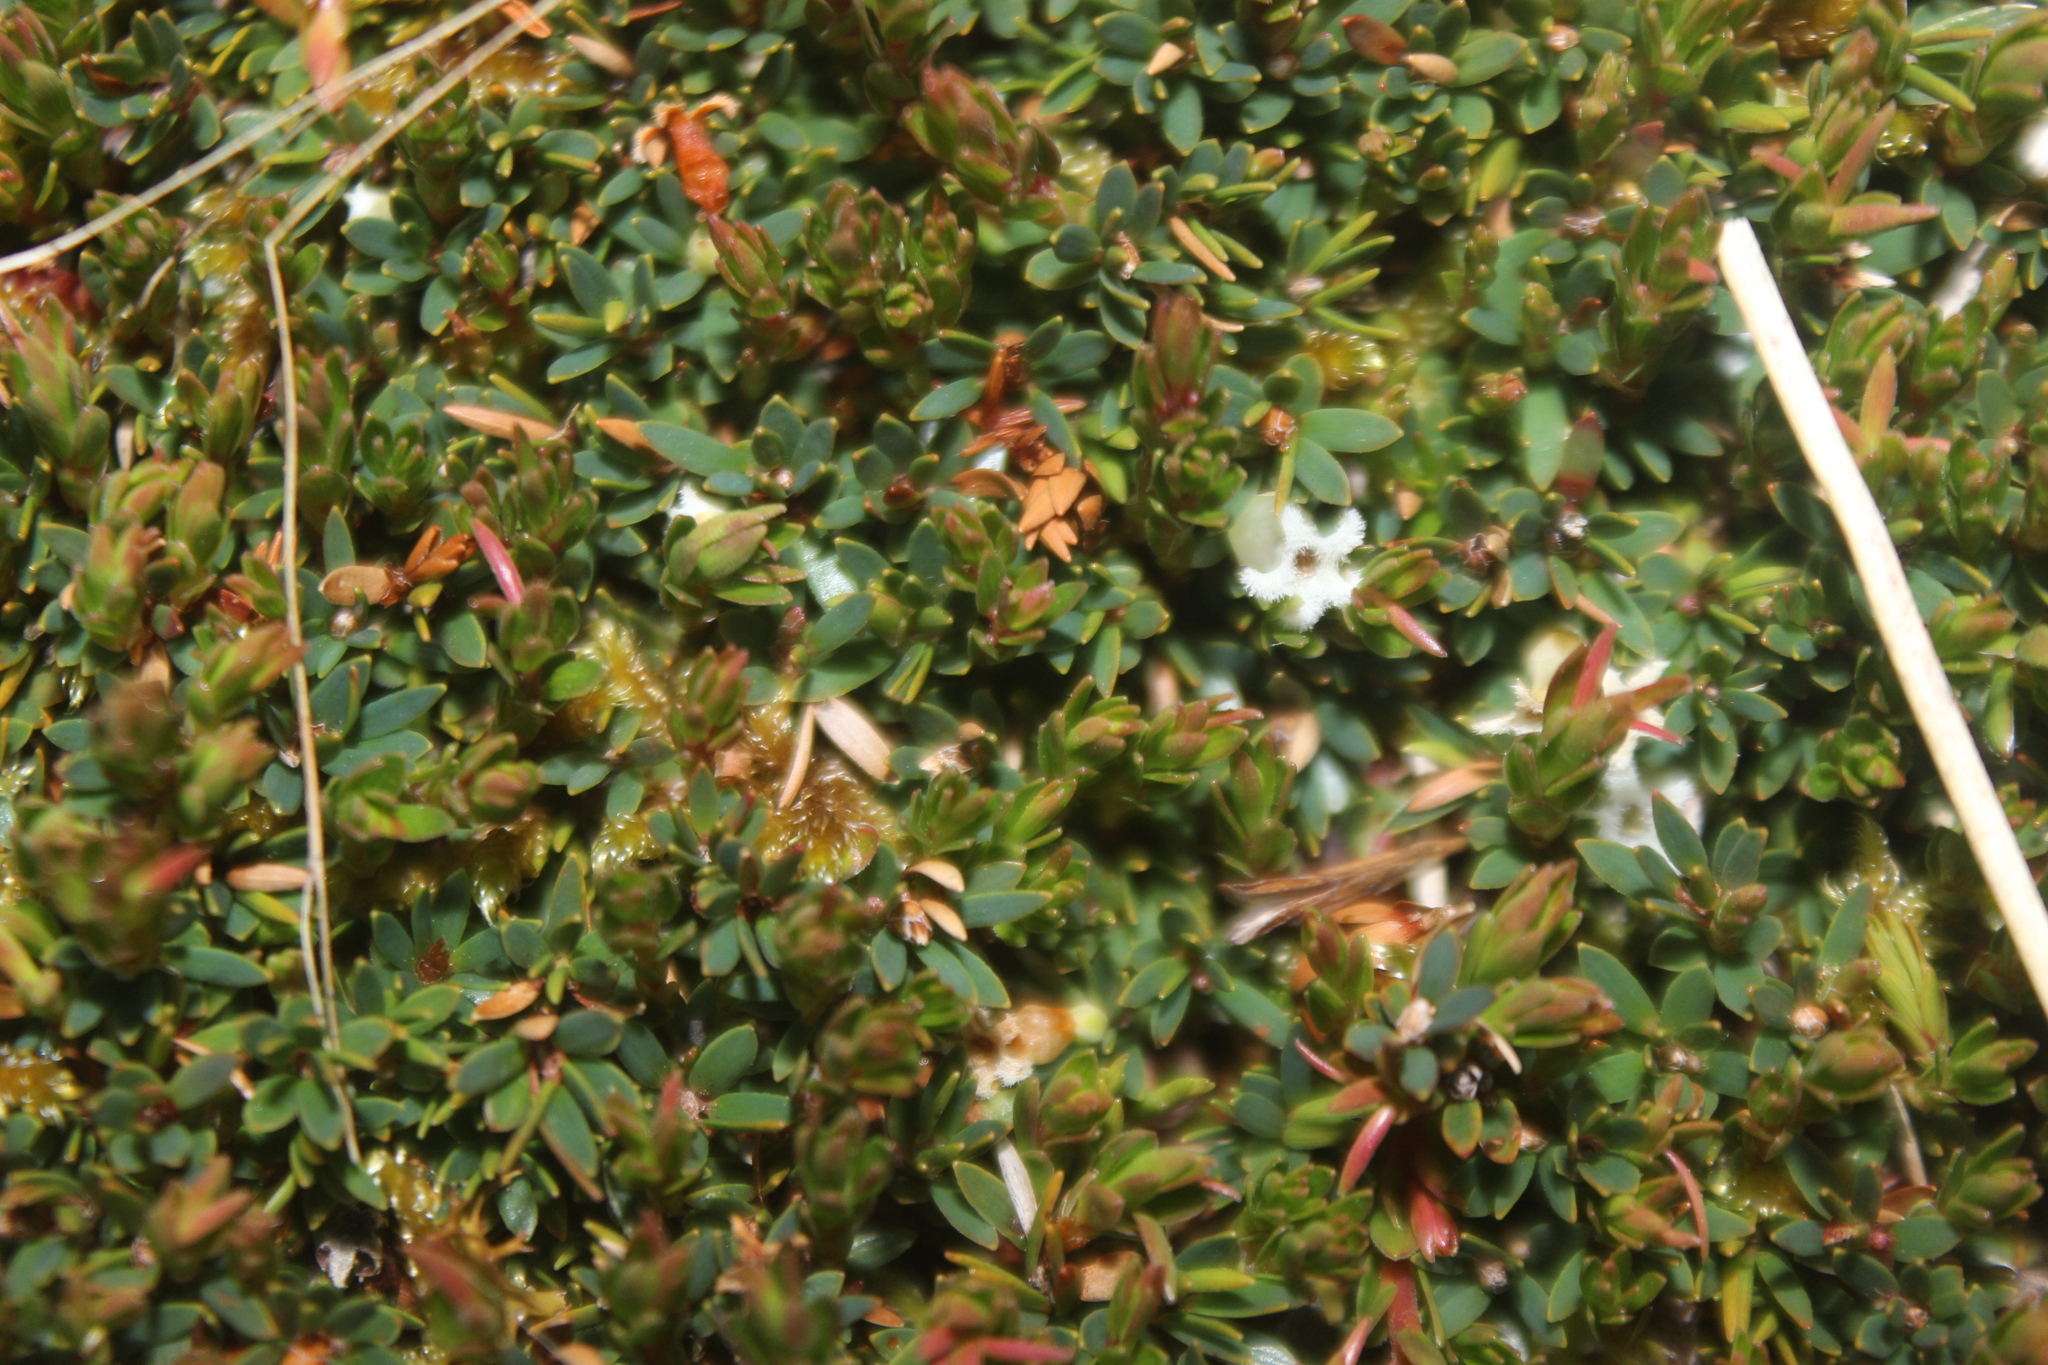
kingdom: Plantae
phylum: Tracheophyta
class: Magnoliopsida
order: Ericales
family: Ericaceae
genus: Pentachondra
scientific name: Pentachondra pumila
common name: Carpet-heath
